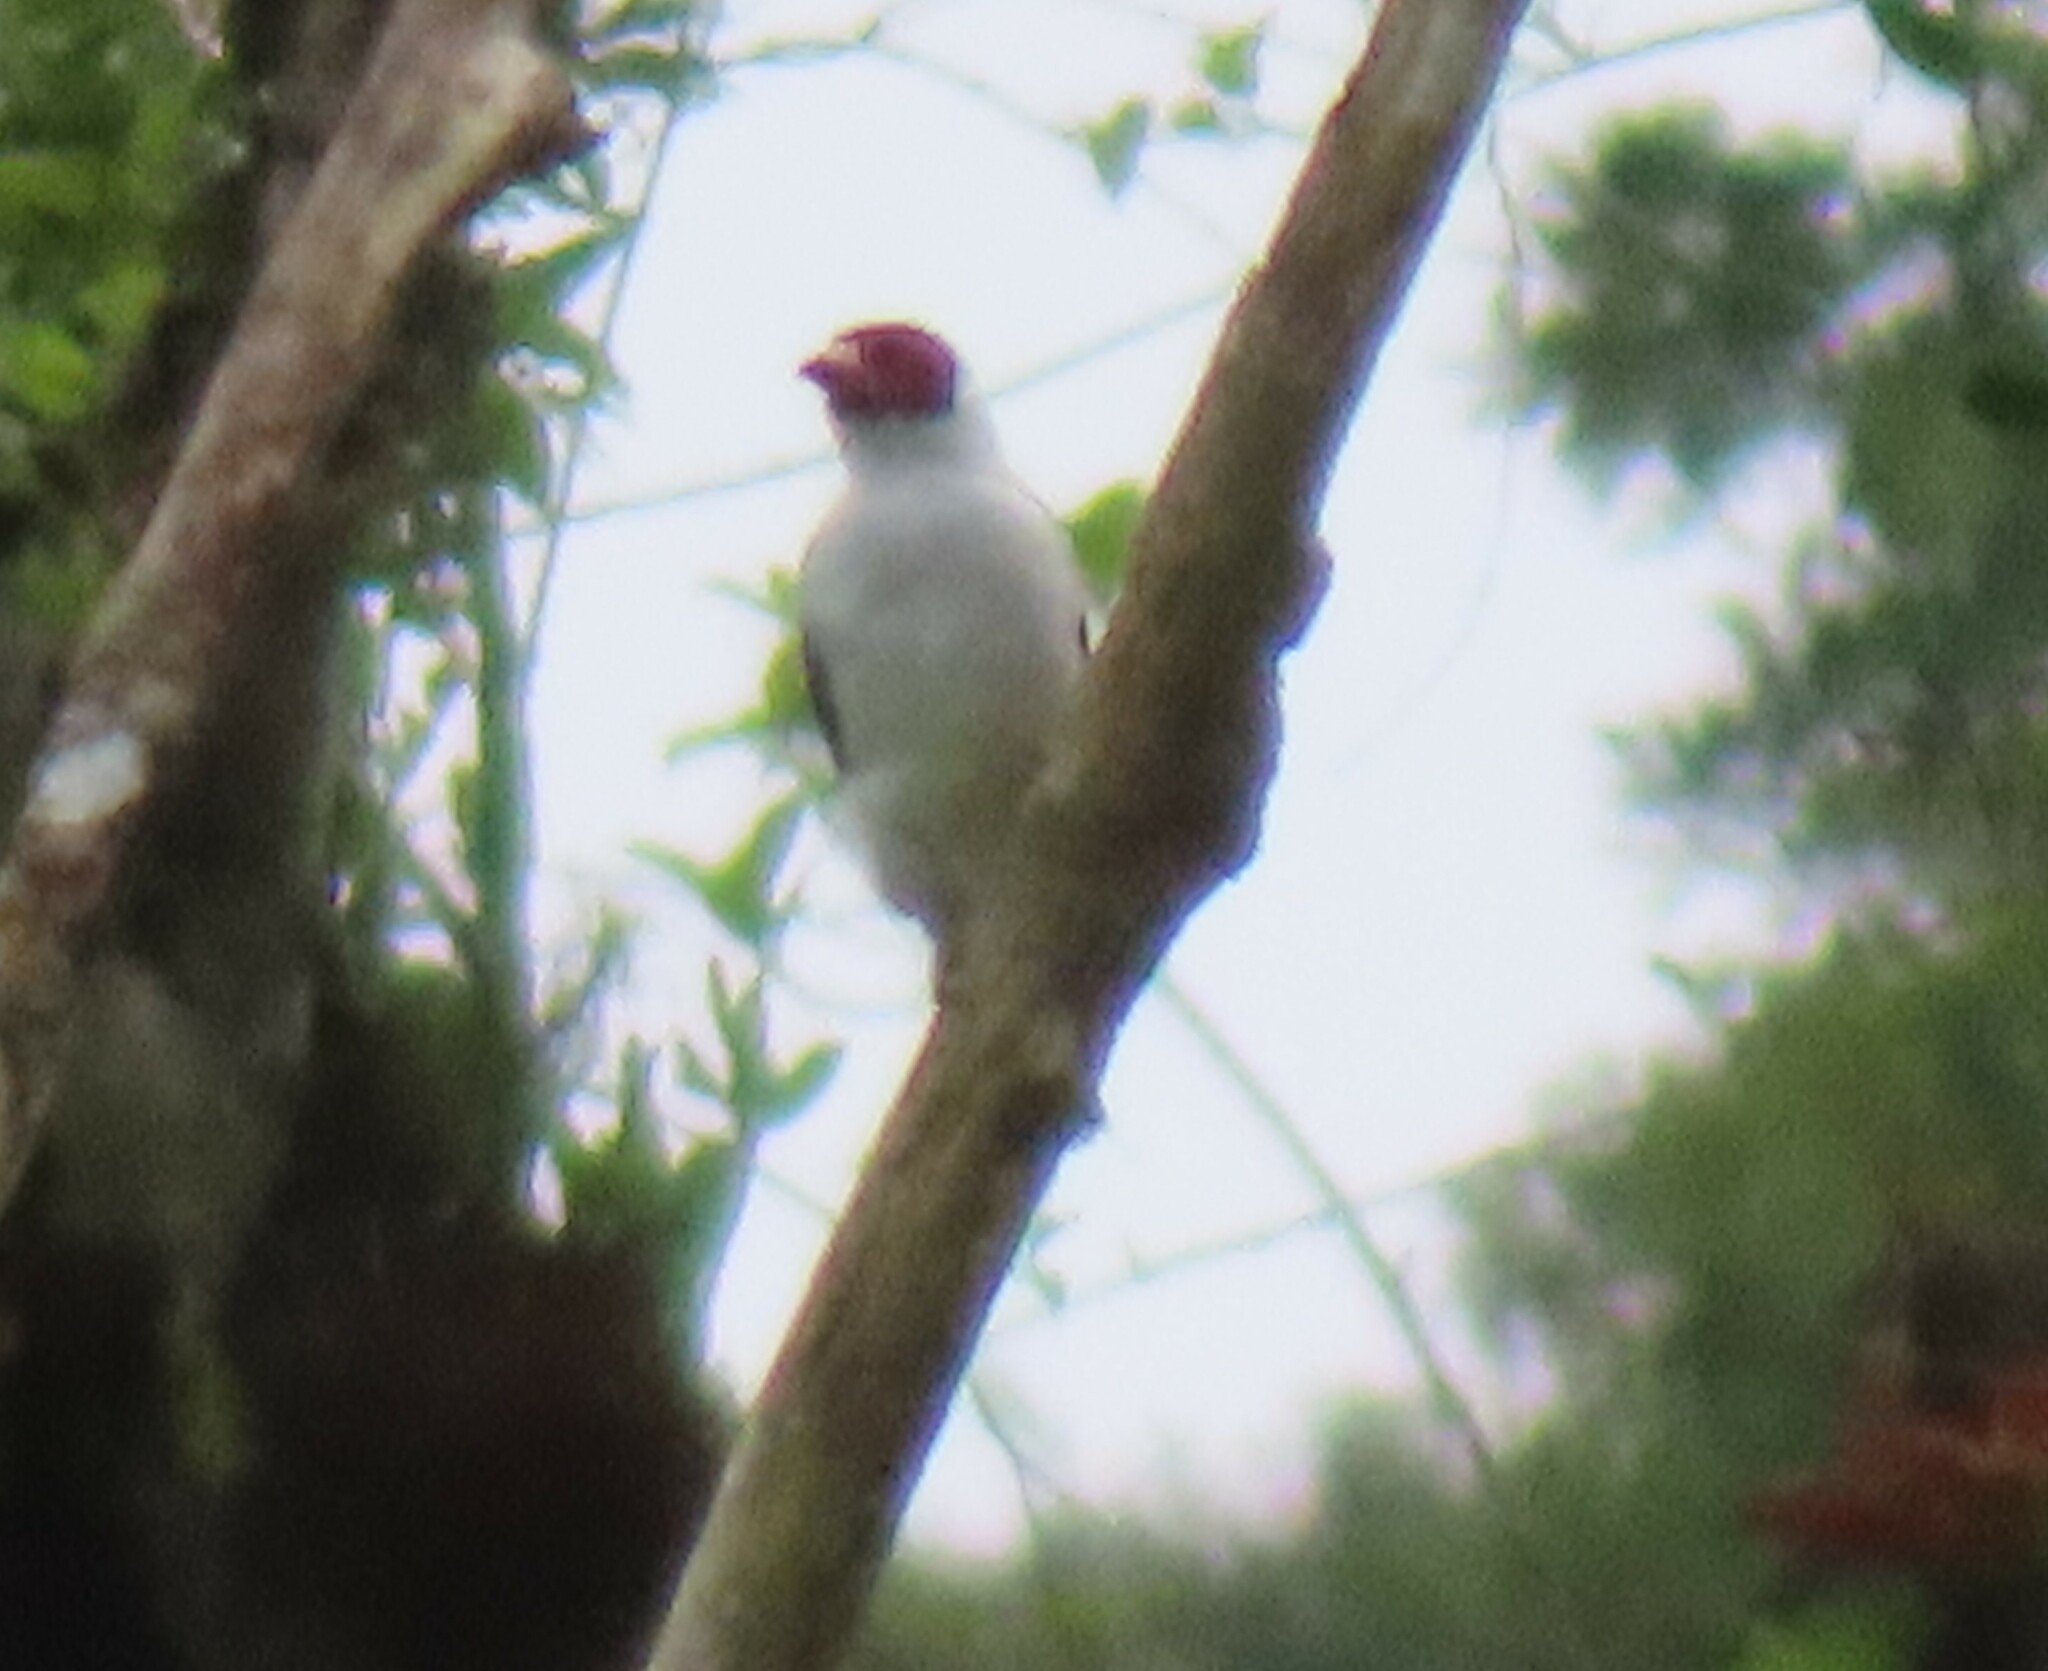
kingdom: Animalia
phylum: Chordata
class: Aves
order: Passeriformes
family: Cotingidae
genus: Tityra
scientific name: Tityra semifasciata
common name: Masked tityra
